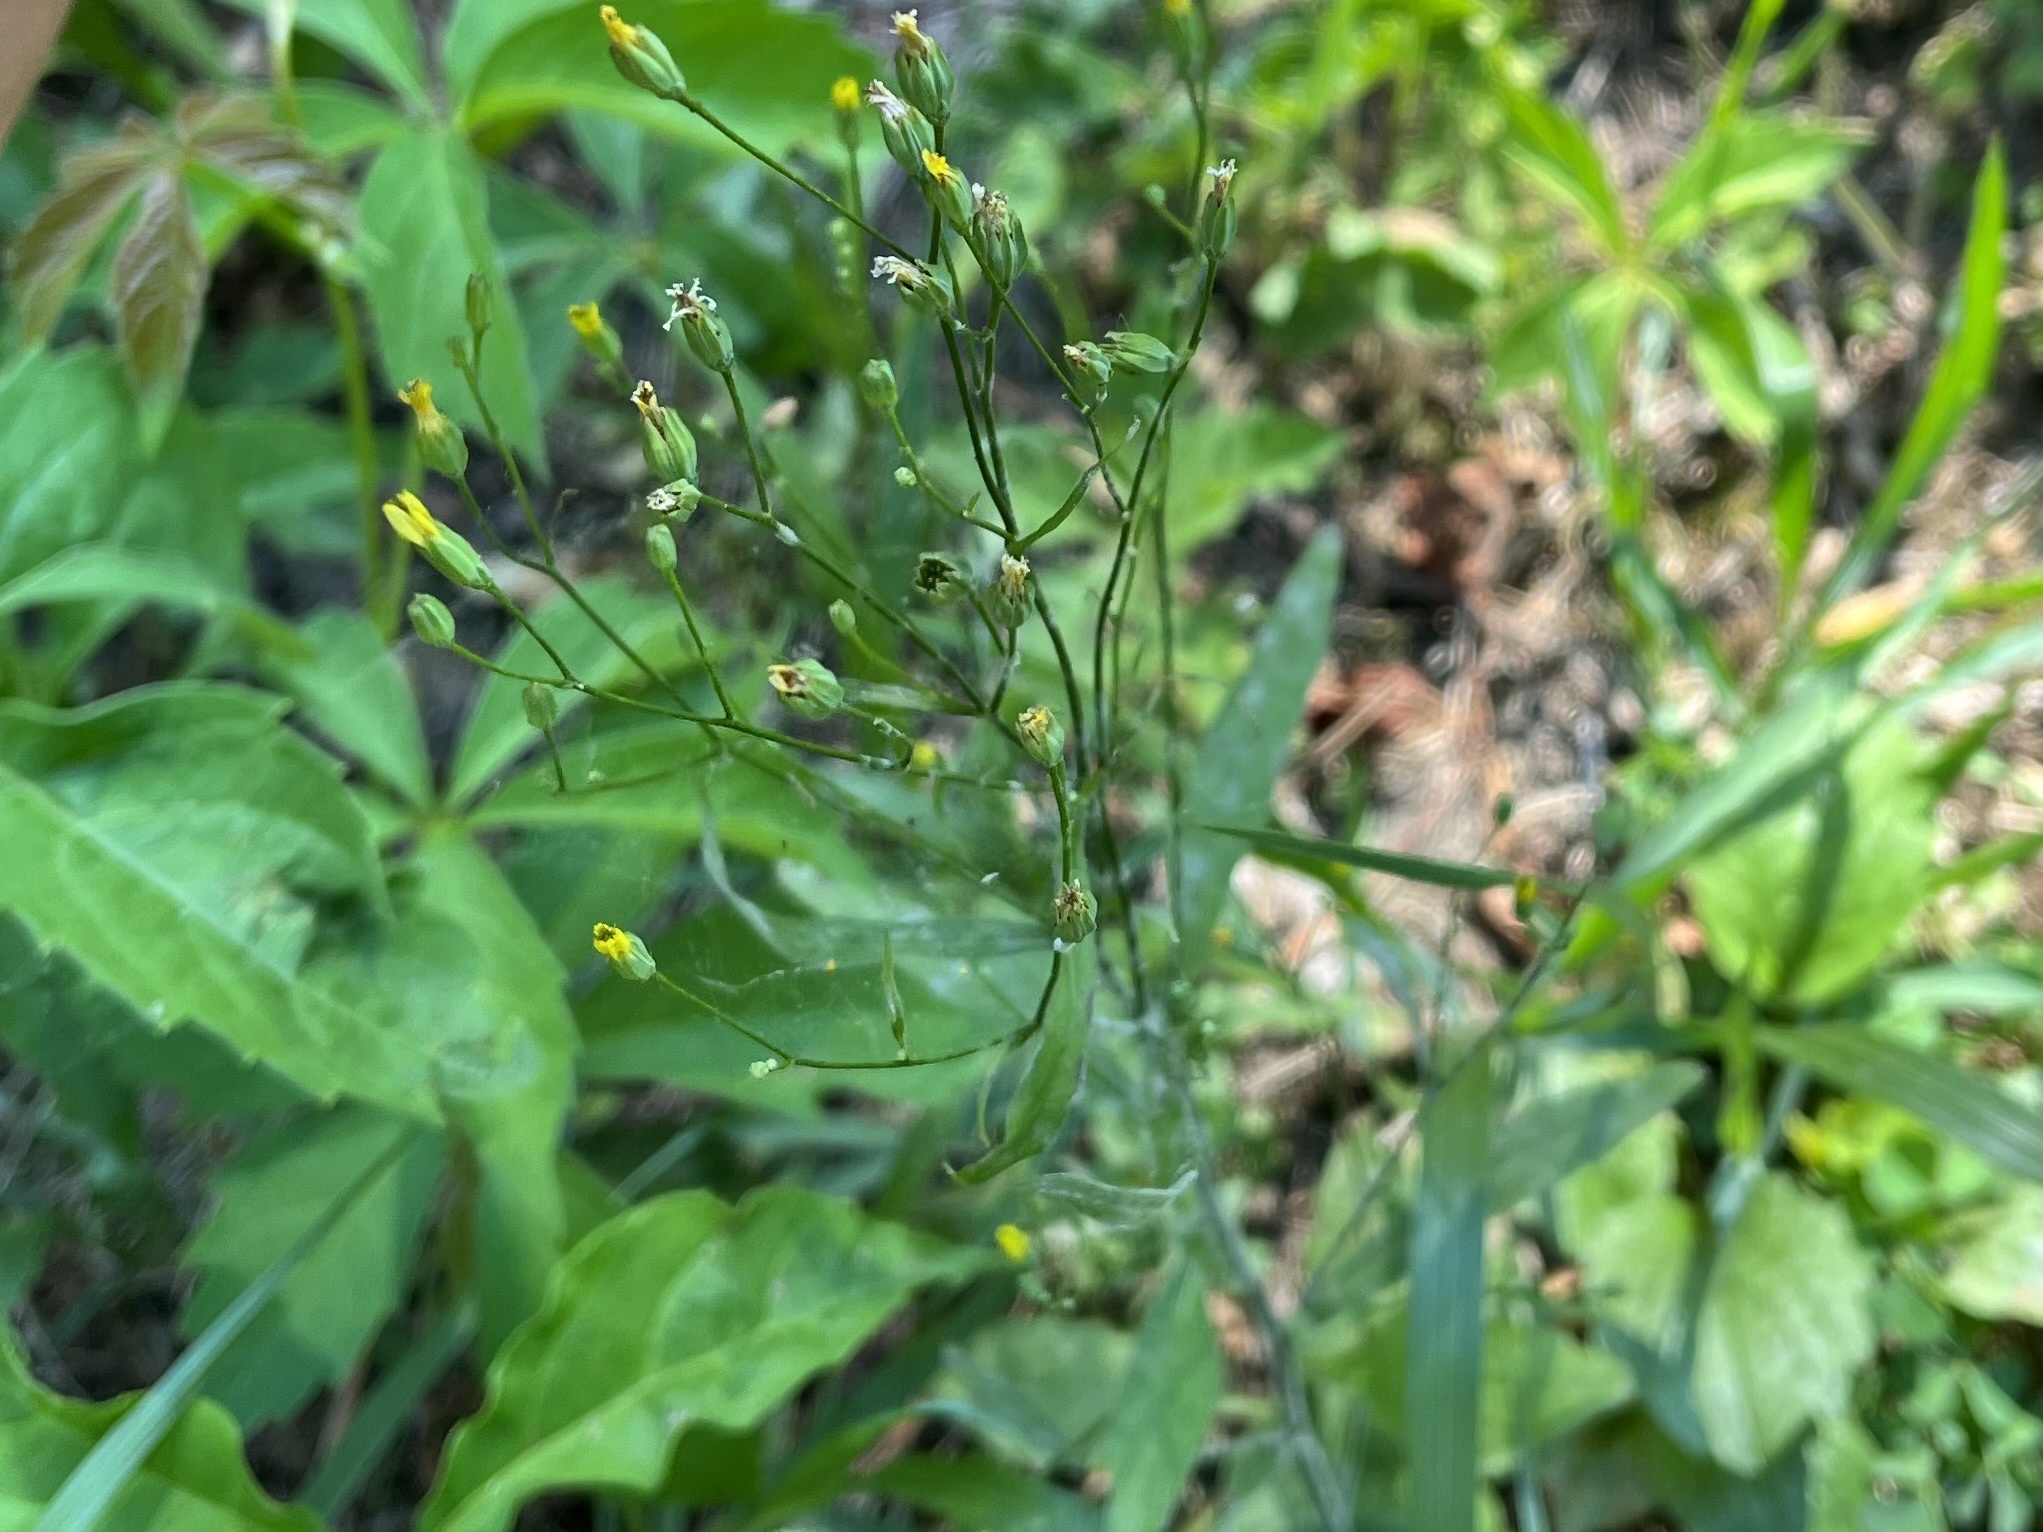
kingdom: Plantae
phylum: Tracheophyta
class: Magnoliopsida
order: Asterales
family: Asteraceae
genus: Lapsana
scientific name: Lapsana communis
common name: Nipplewort
